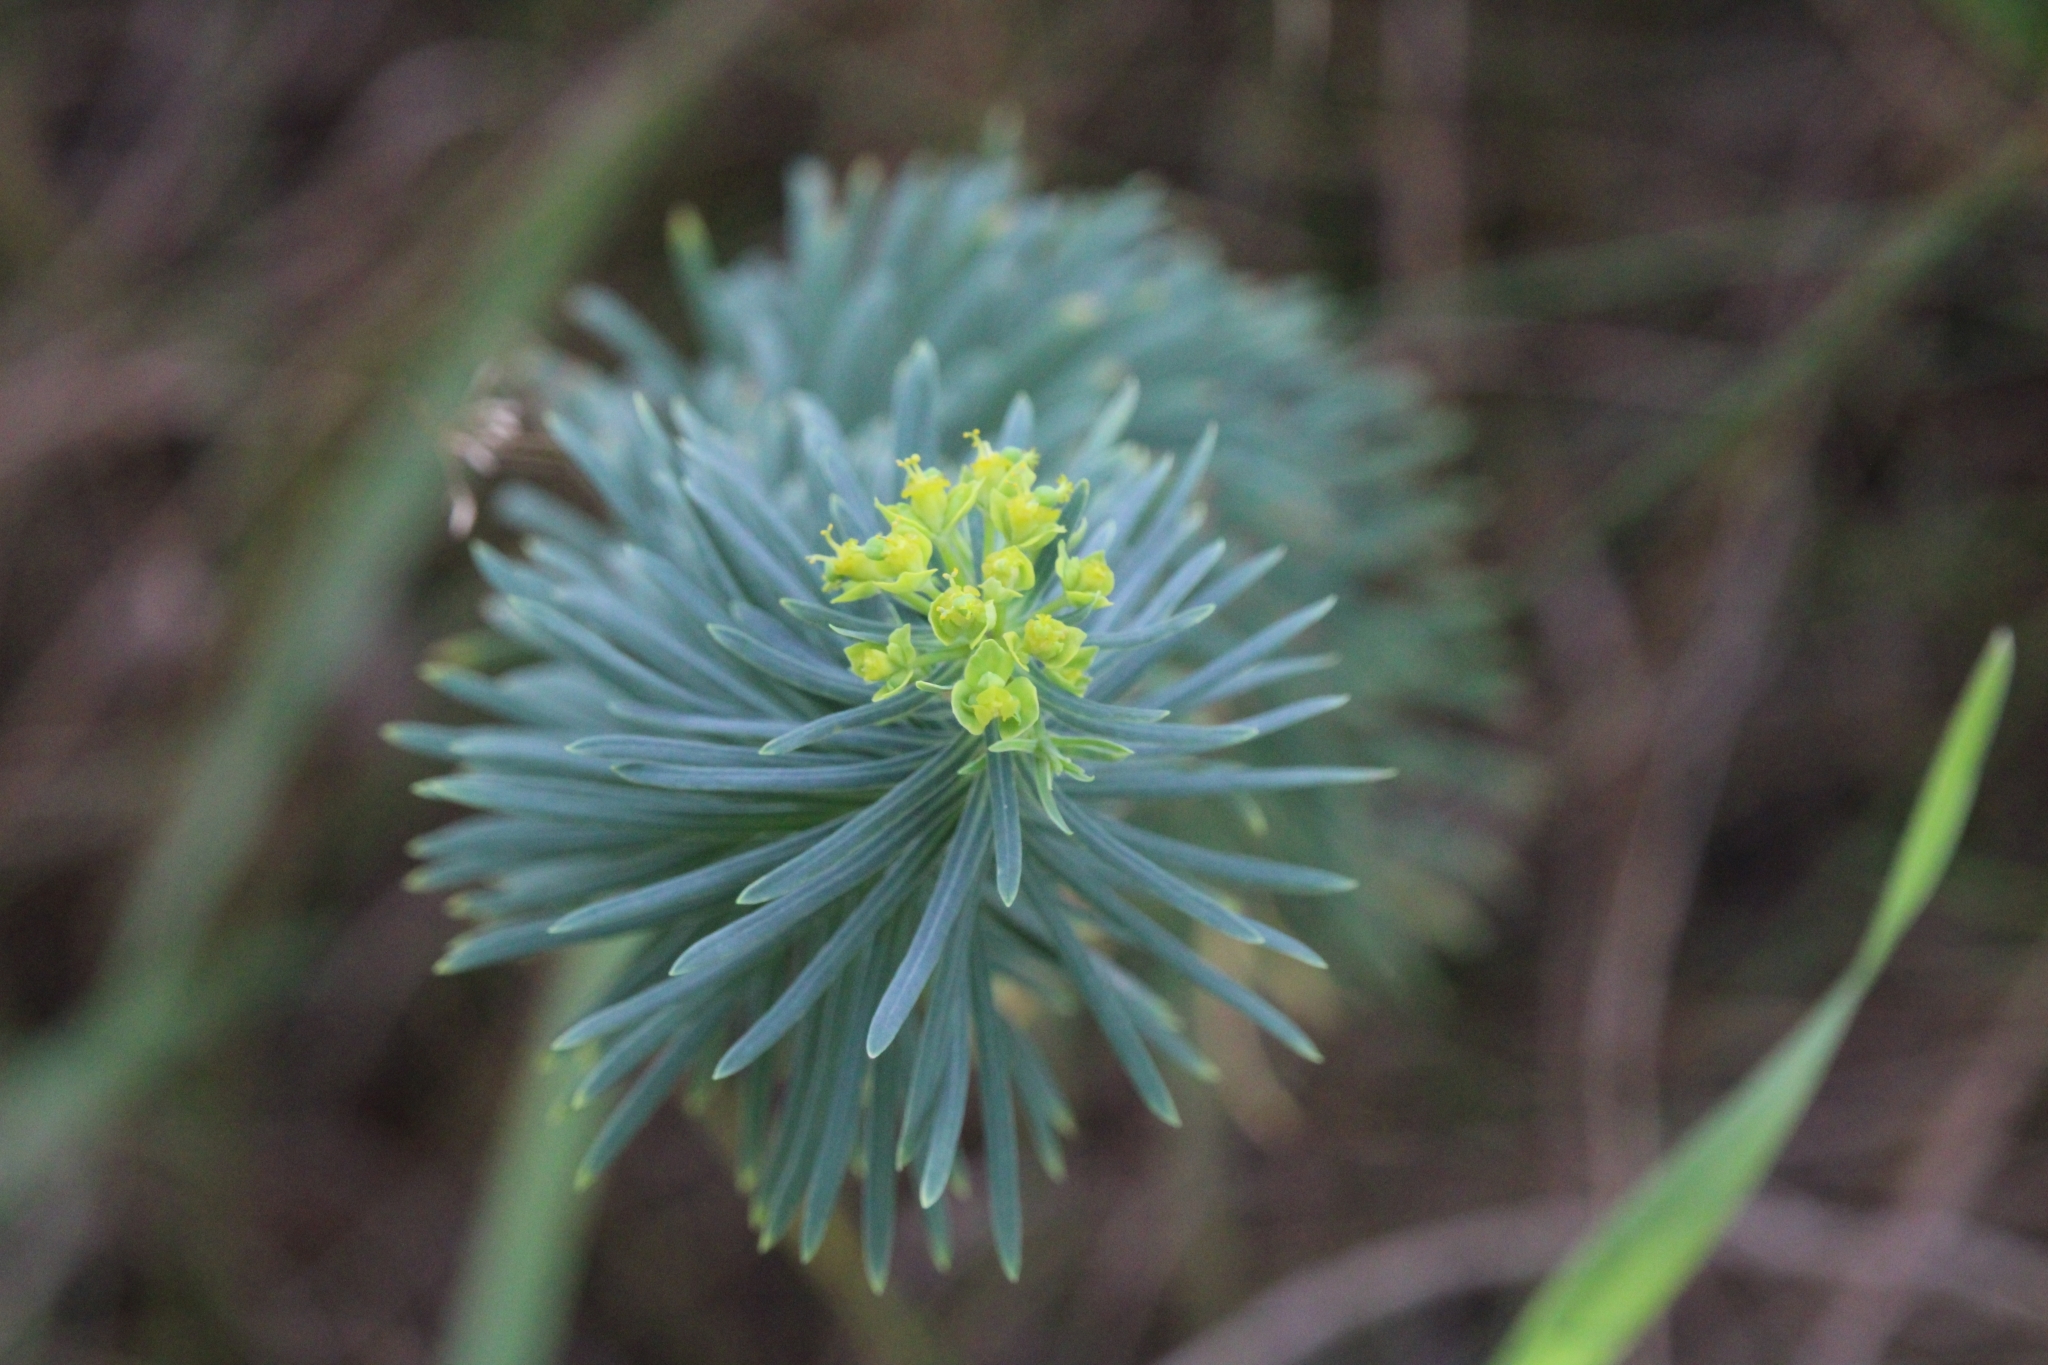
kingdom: Plantae
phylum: Tracheophyta
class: Magnoliopsida
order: Malpighiales
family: Euphorbiaceae
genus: Euphorbia
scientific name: Euphorbia cyparissias
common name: Cypress spurge
